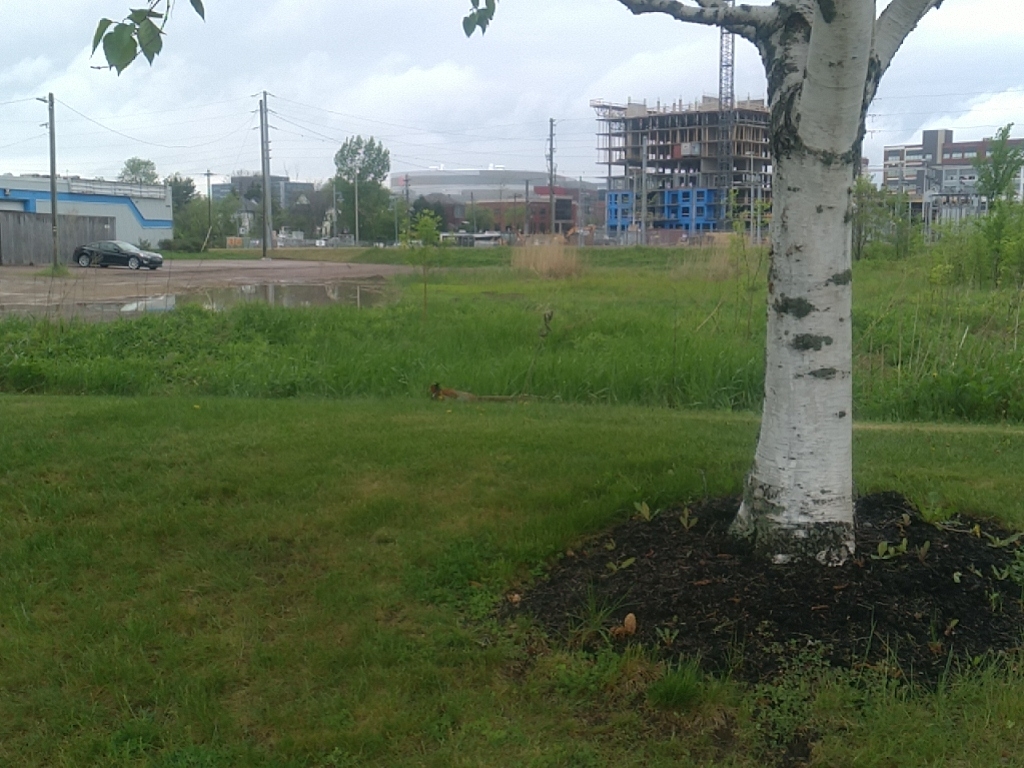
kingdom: Animalia
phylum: Chordata
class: Aves
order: Galliformes
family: Phasianidae
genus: Phasianus
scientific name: Phasianus colchicus
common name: Common pheasant
